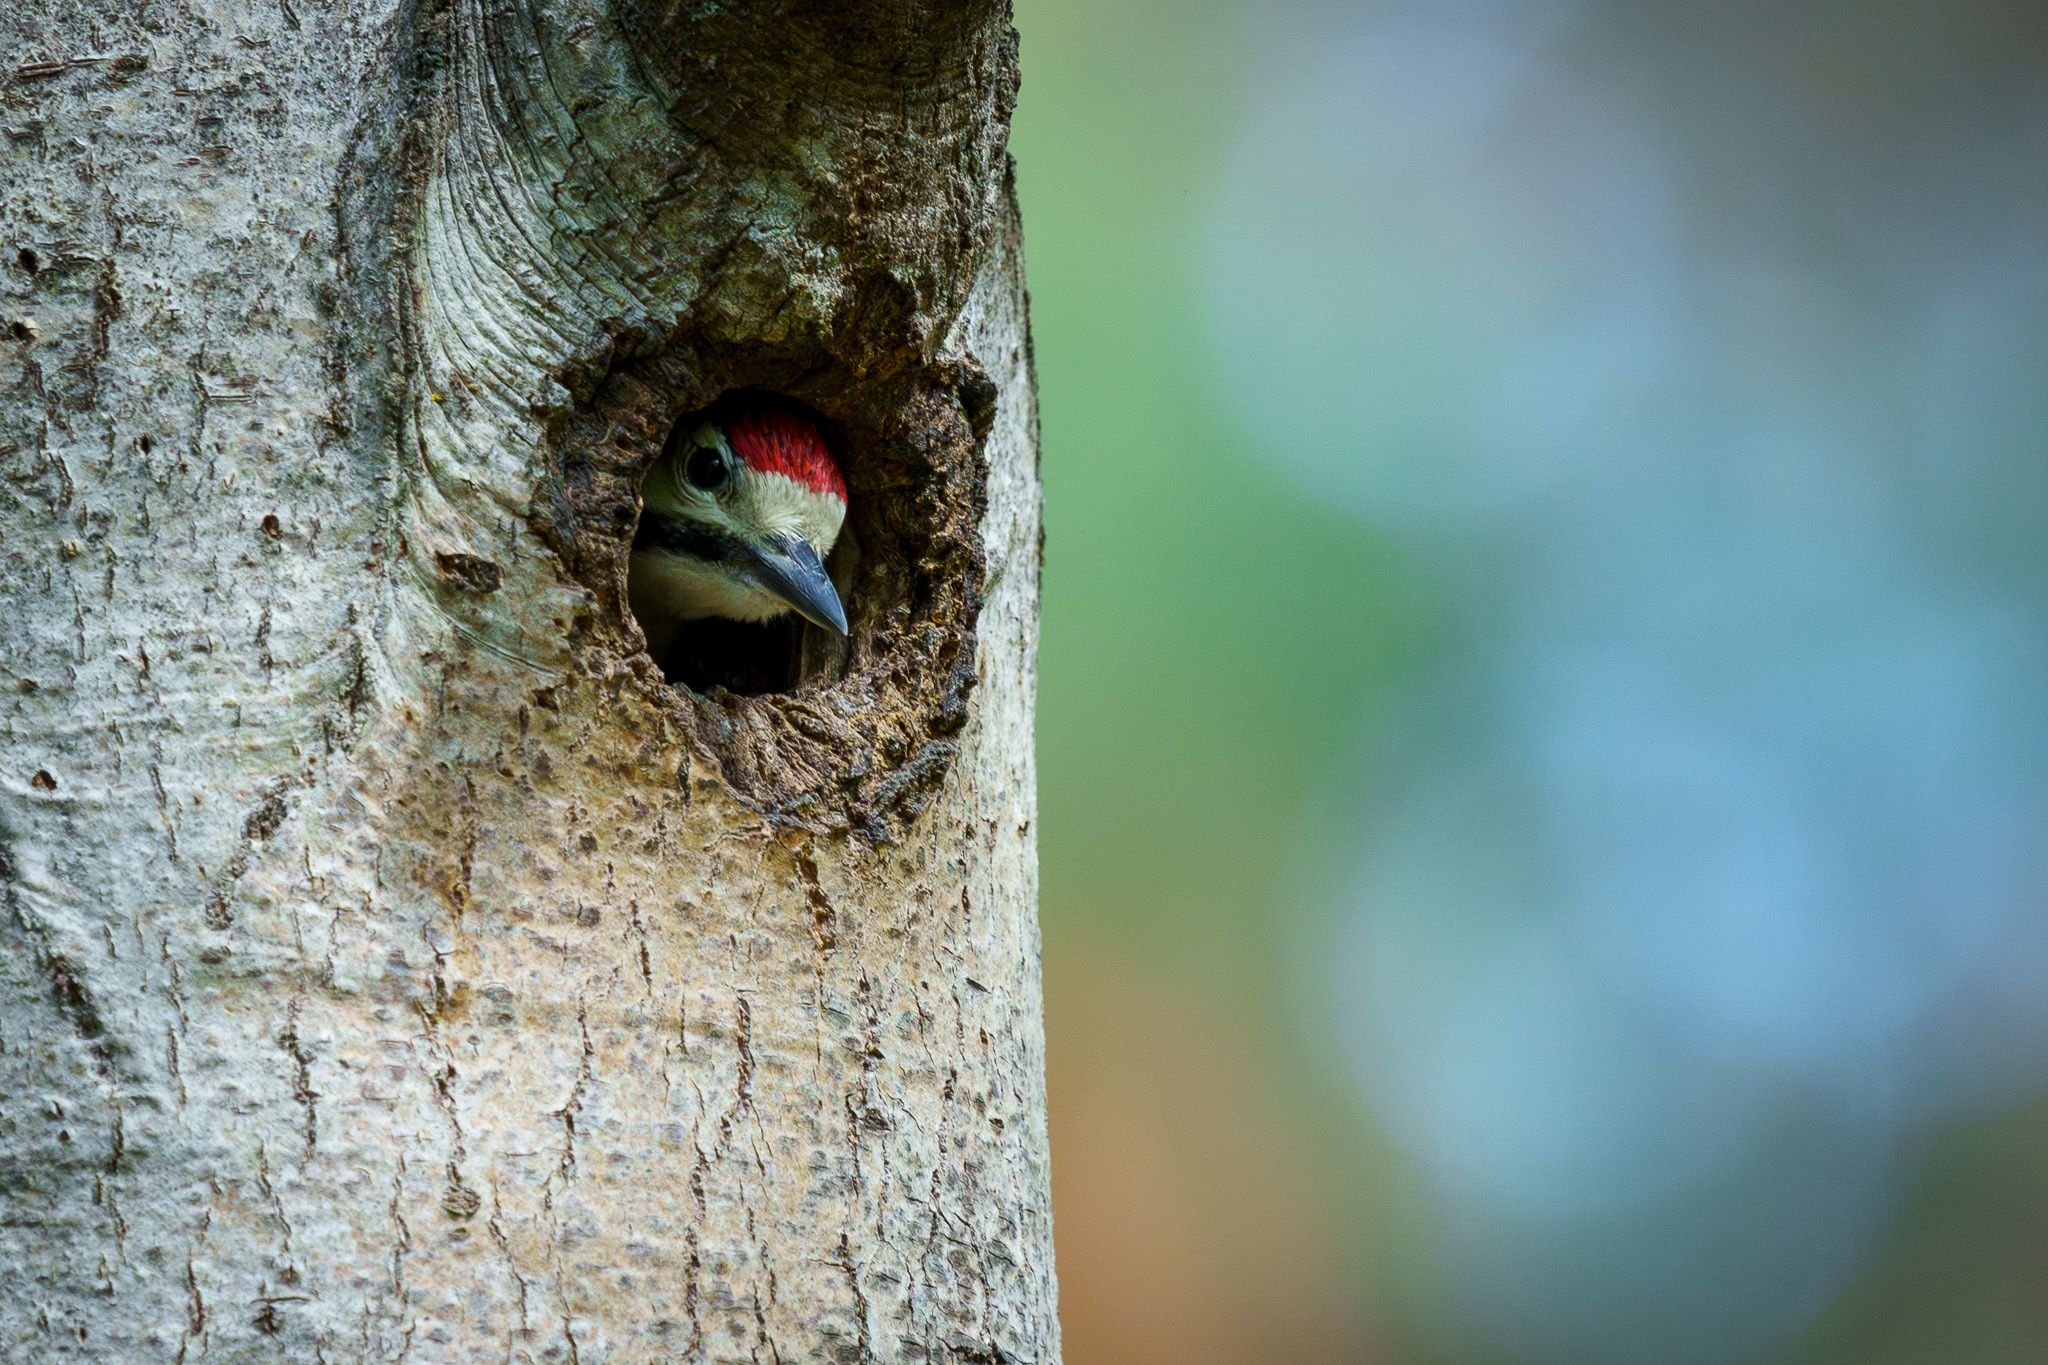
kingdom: Animalia
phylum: Chordata
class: Aves
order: Piciformes
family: Picidae
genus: Dendrocopos
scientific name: Dendrocopos major
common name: Great spotted woodpecker
